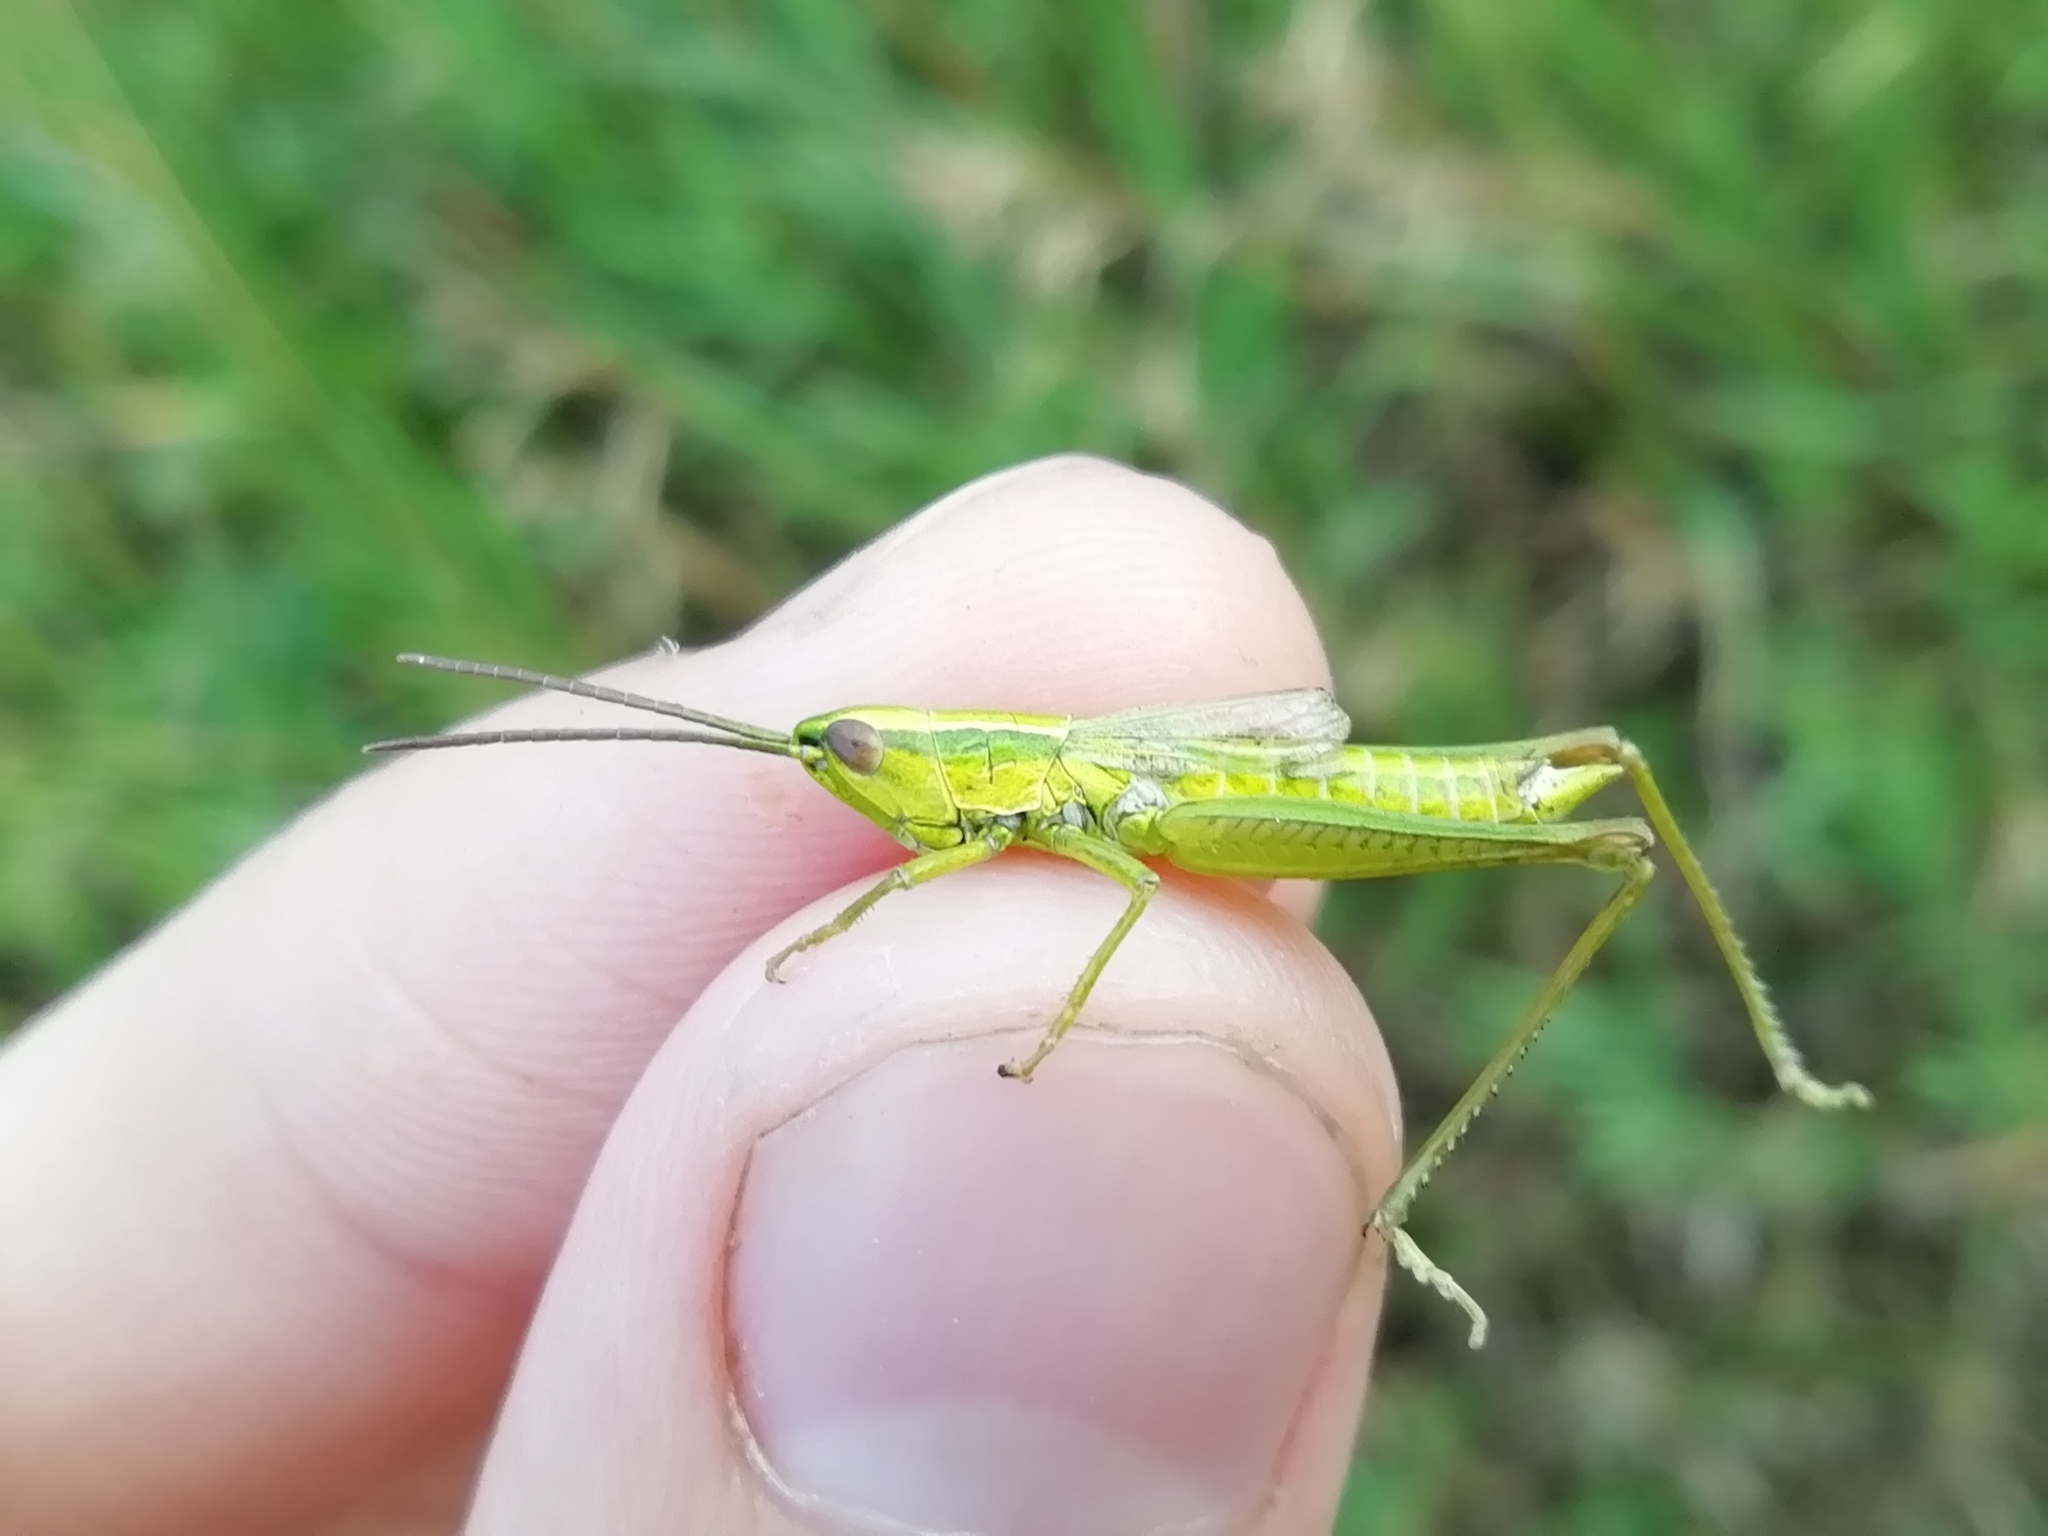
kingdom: Animalia
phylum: Arthropoda
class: Insecta
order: Orthoptera
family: Acrididae
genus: Euthystira
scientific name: Euthystira brachyptera
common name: Small gold grasshopper
